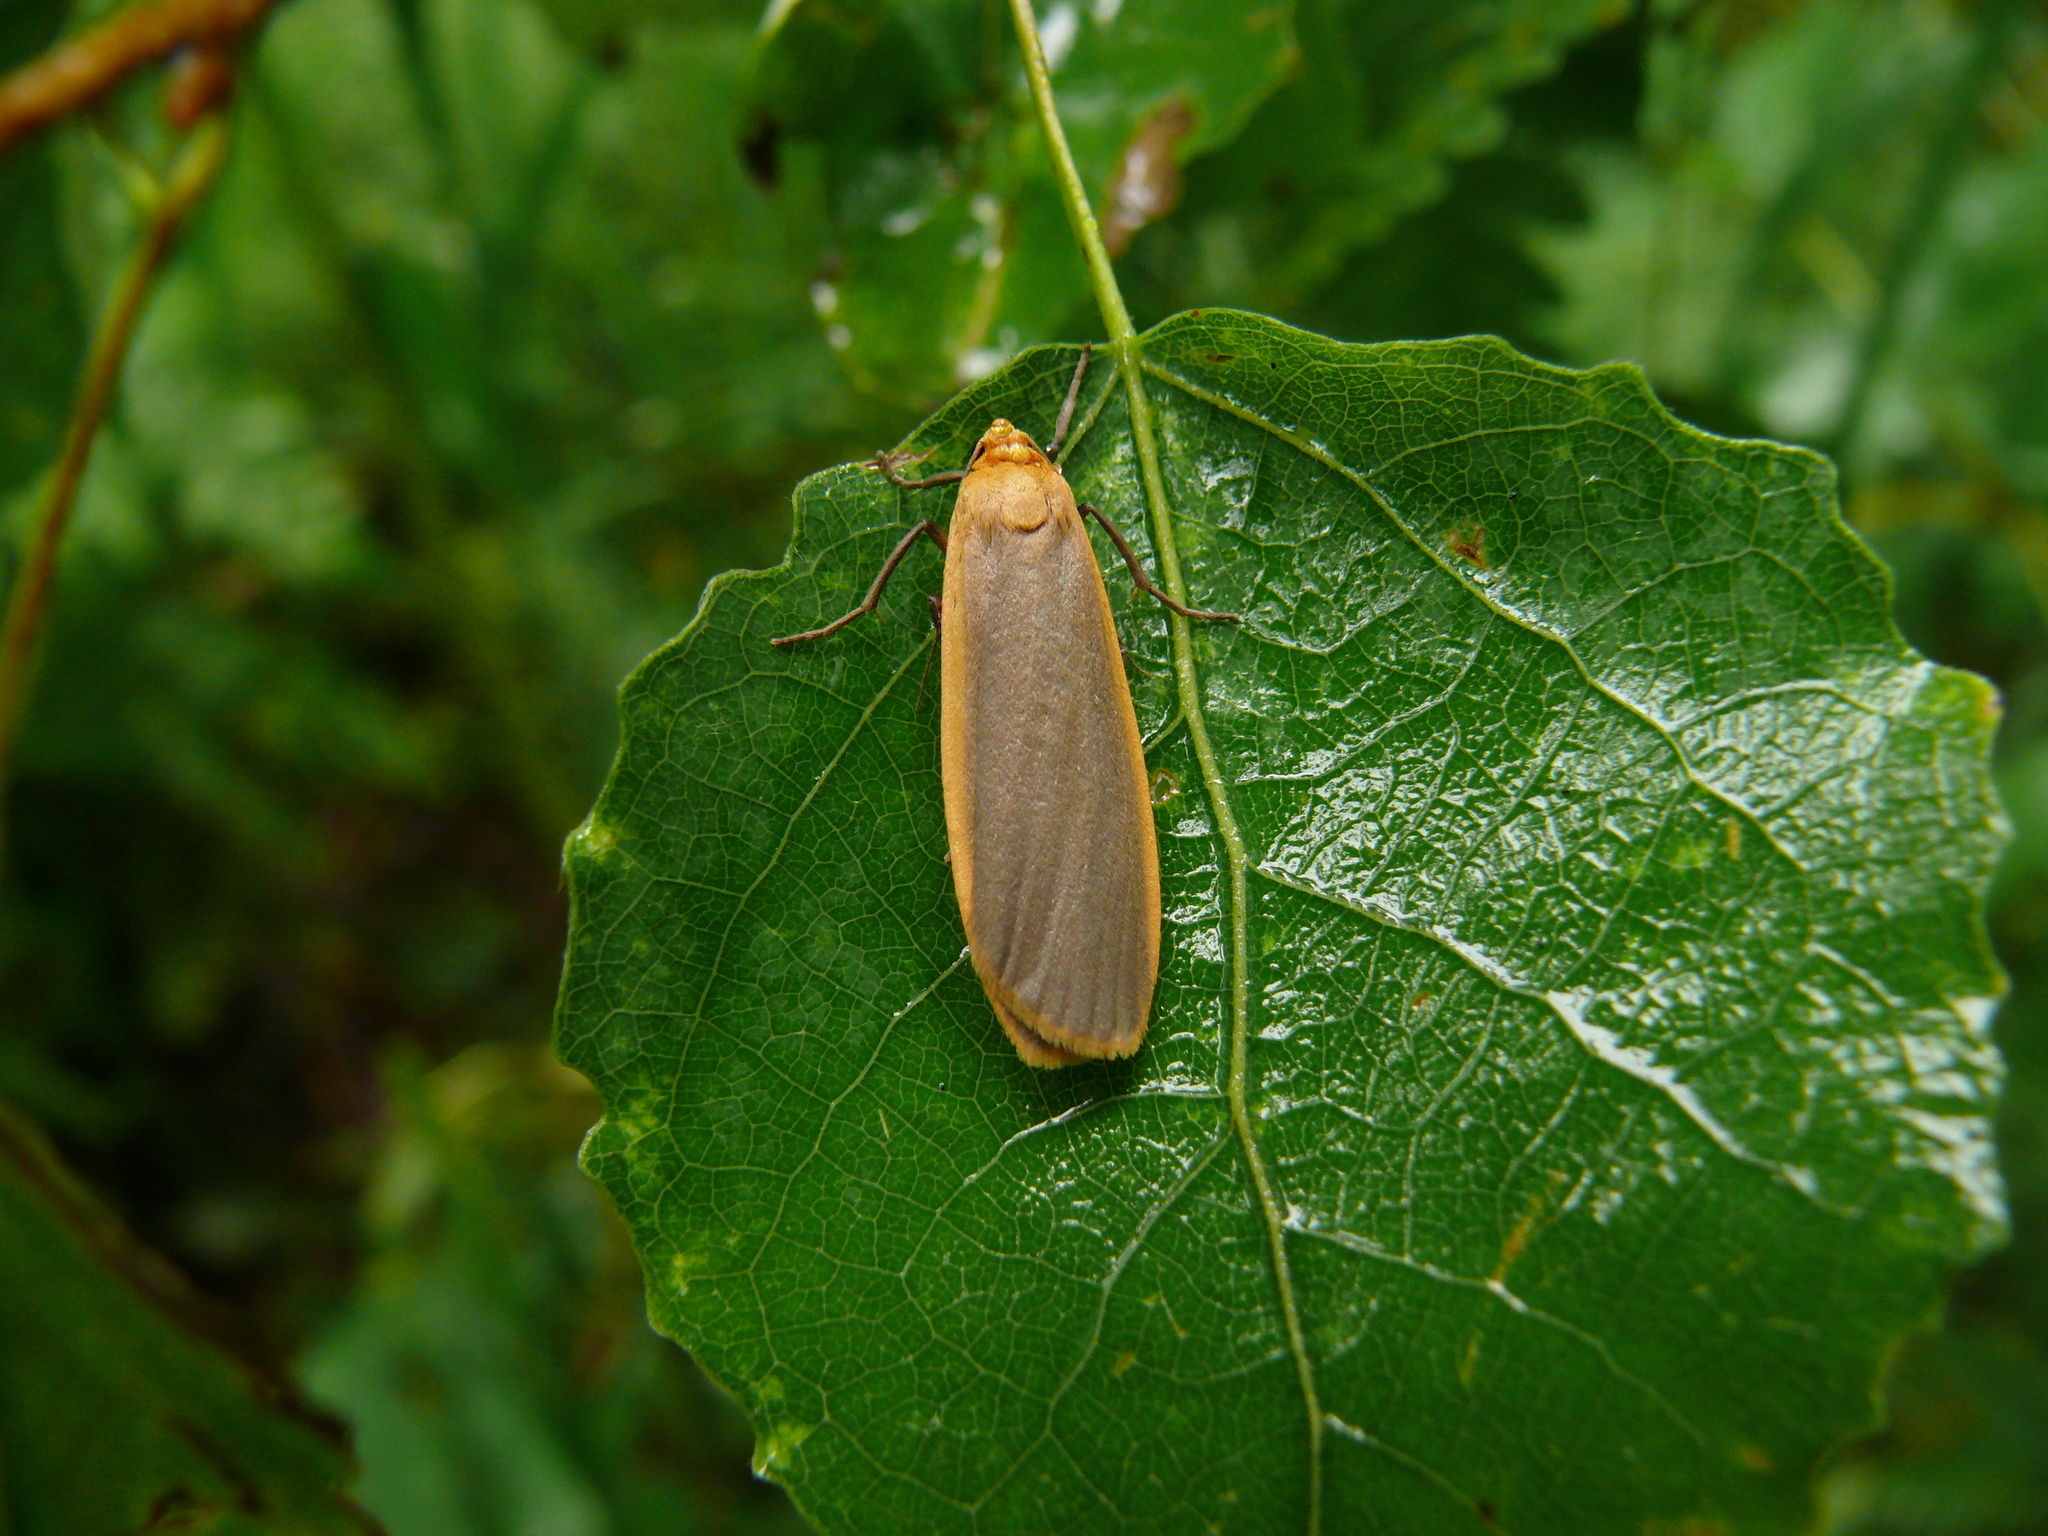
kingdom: Animalia
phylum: Arthropoda
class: Insecta
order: Lepidoptera
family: Erebidae
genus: Collita
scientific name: Collita griseola
